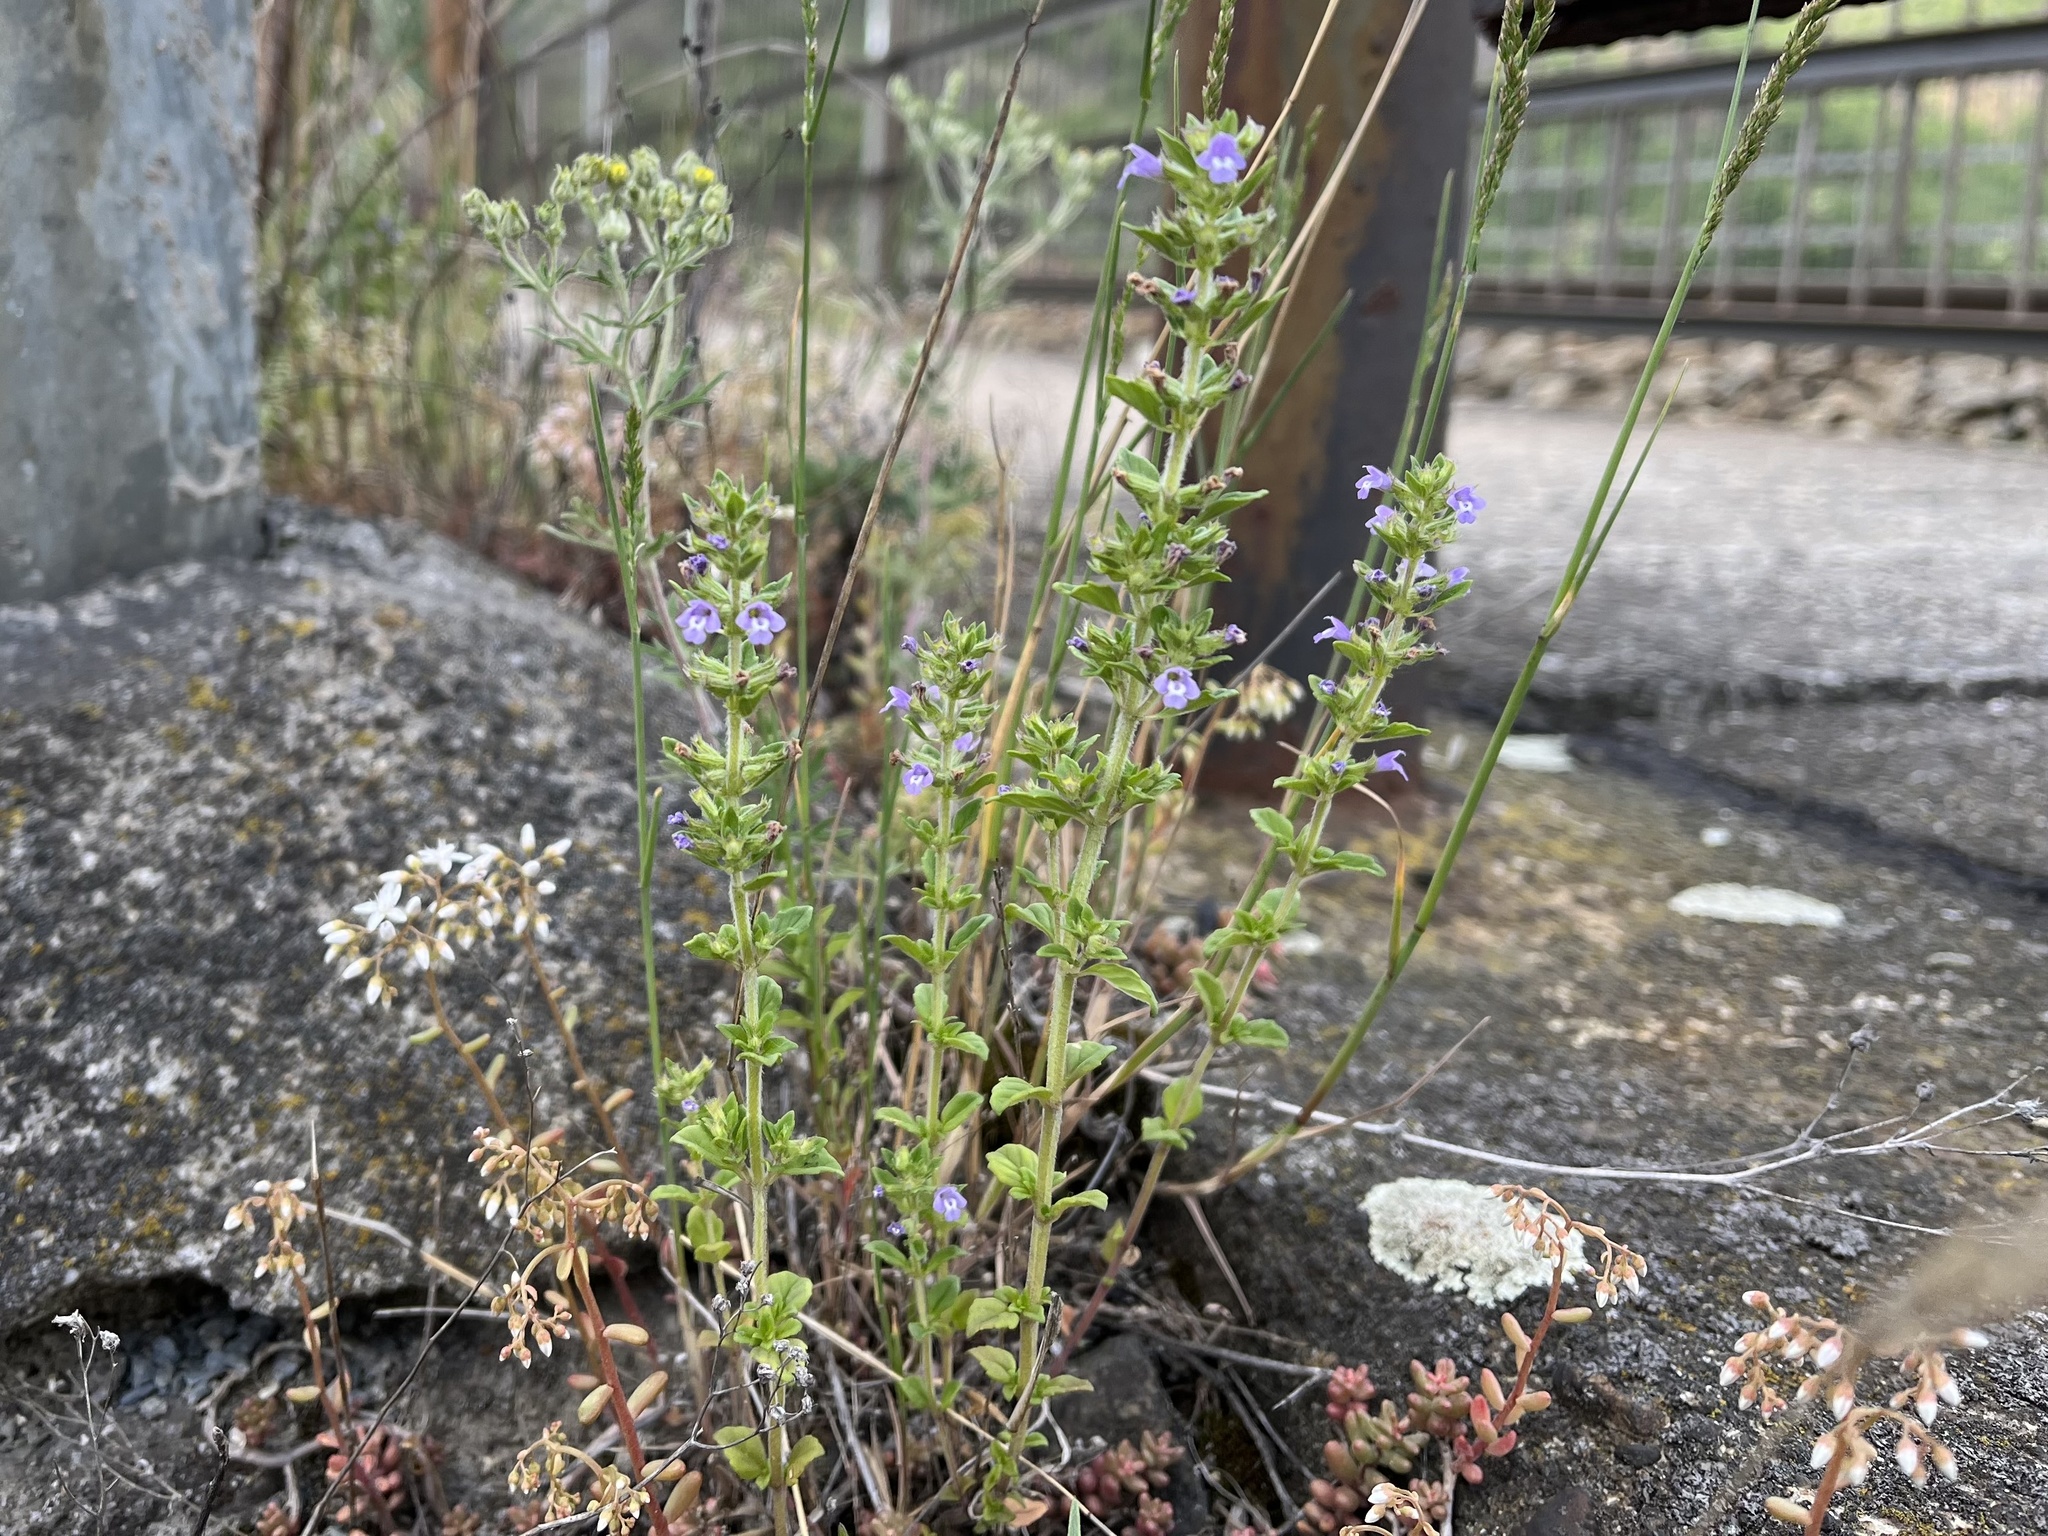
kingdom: Plantae
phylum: Tracheophyta
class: Magnoliopsida
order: Lamiales
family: Lamiaceae
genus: Clinopodium
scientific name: Clinopodium acinos
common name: Basil thyme
